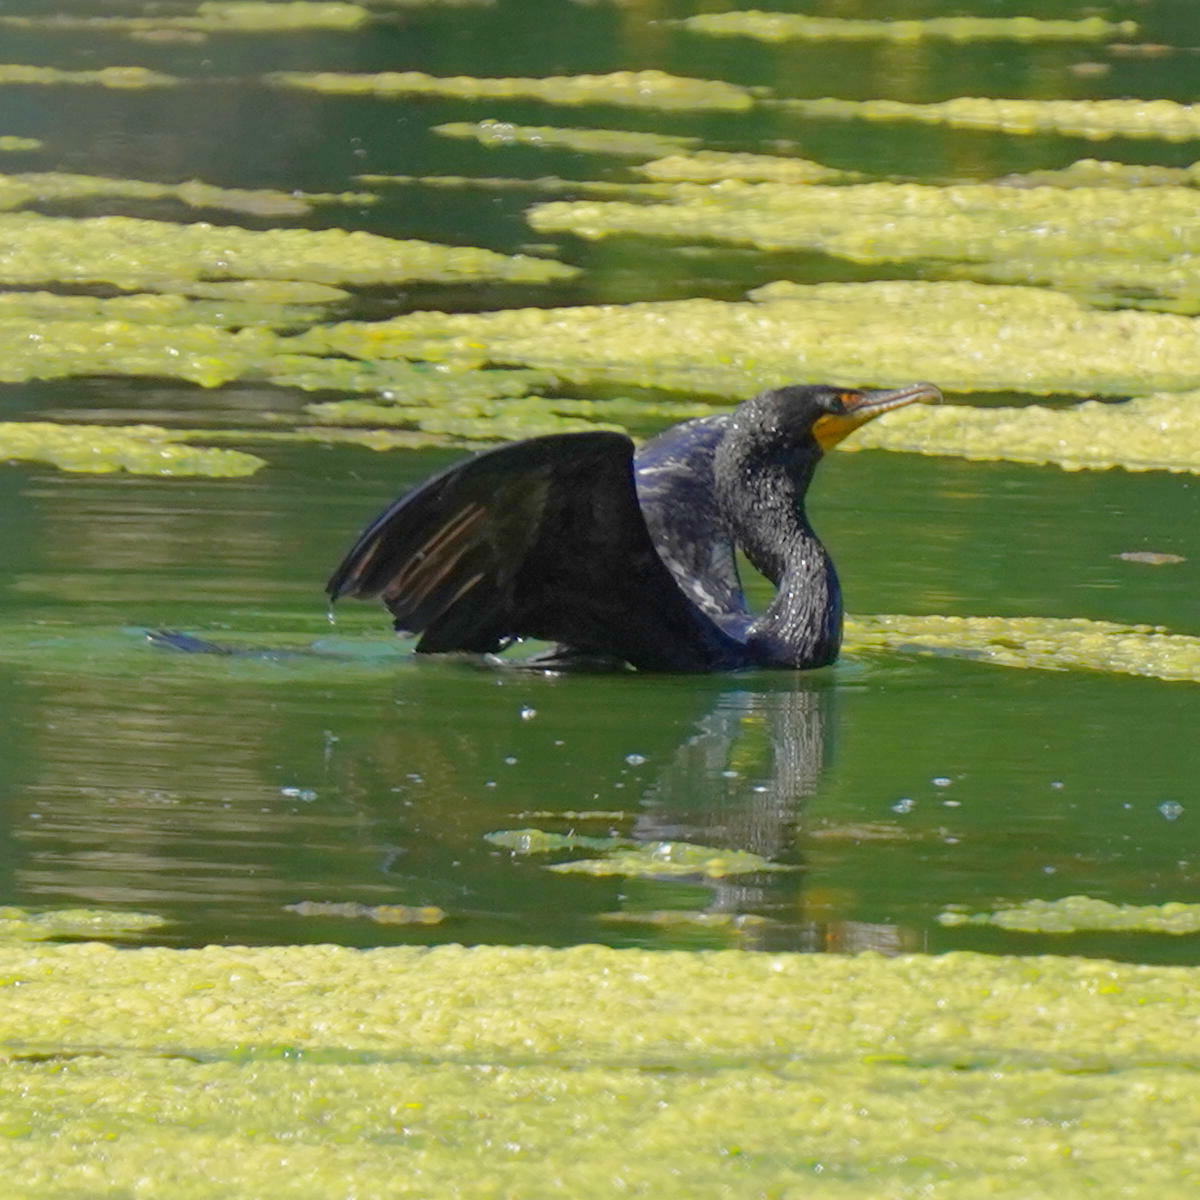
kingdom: Animalia
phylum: Chordata
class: Aves
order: Suliformes
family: Phalacrocoracidae
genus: Phalacrocorax
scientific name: Phalacrocorax auritus
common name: Double-crested cormorant
